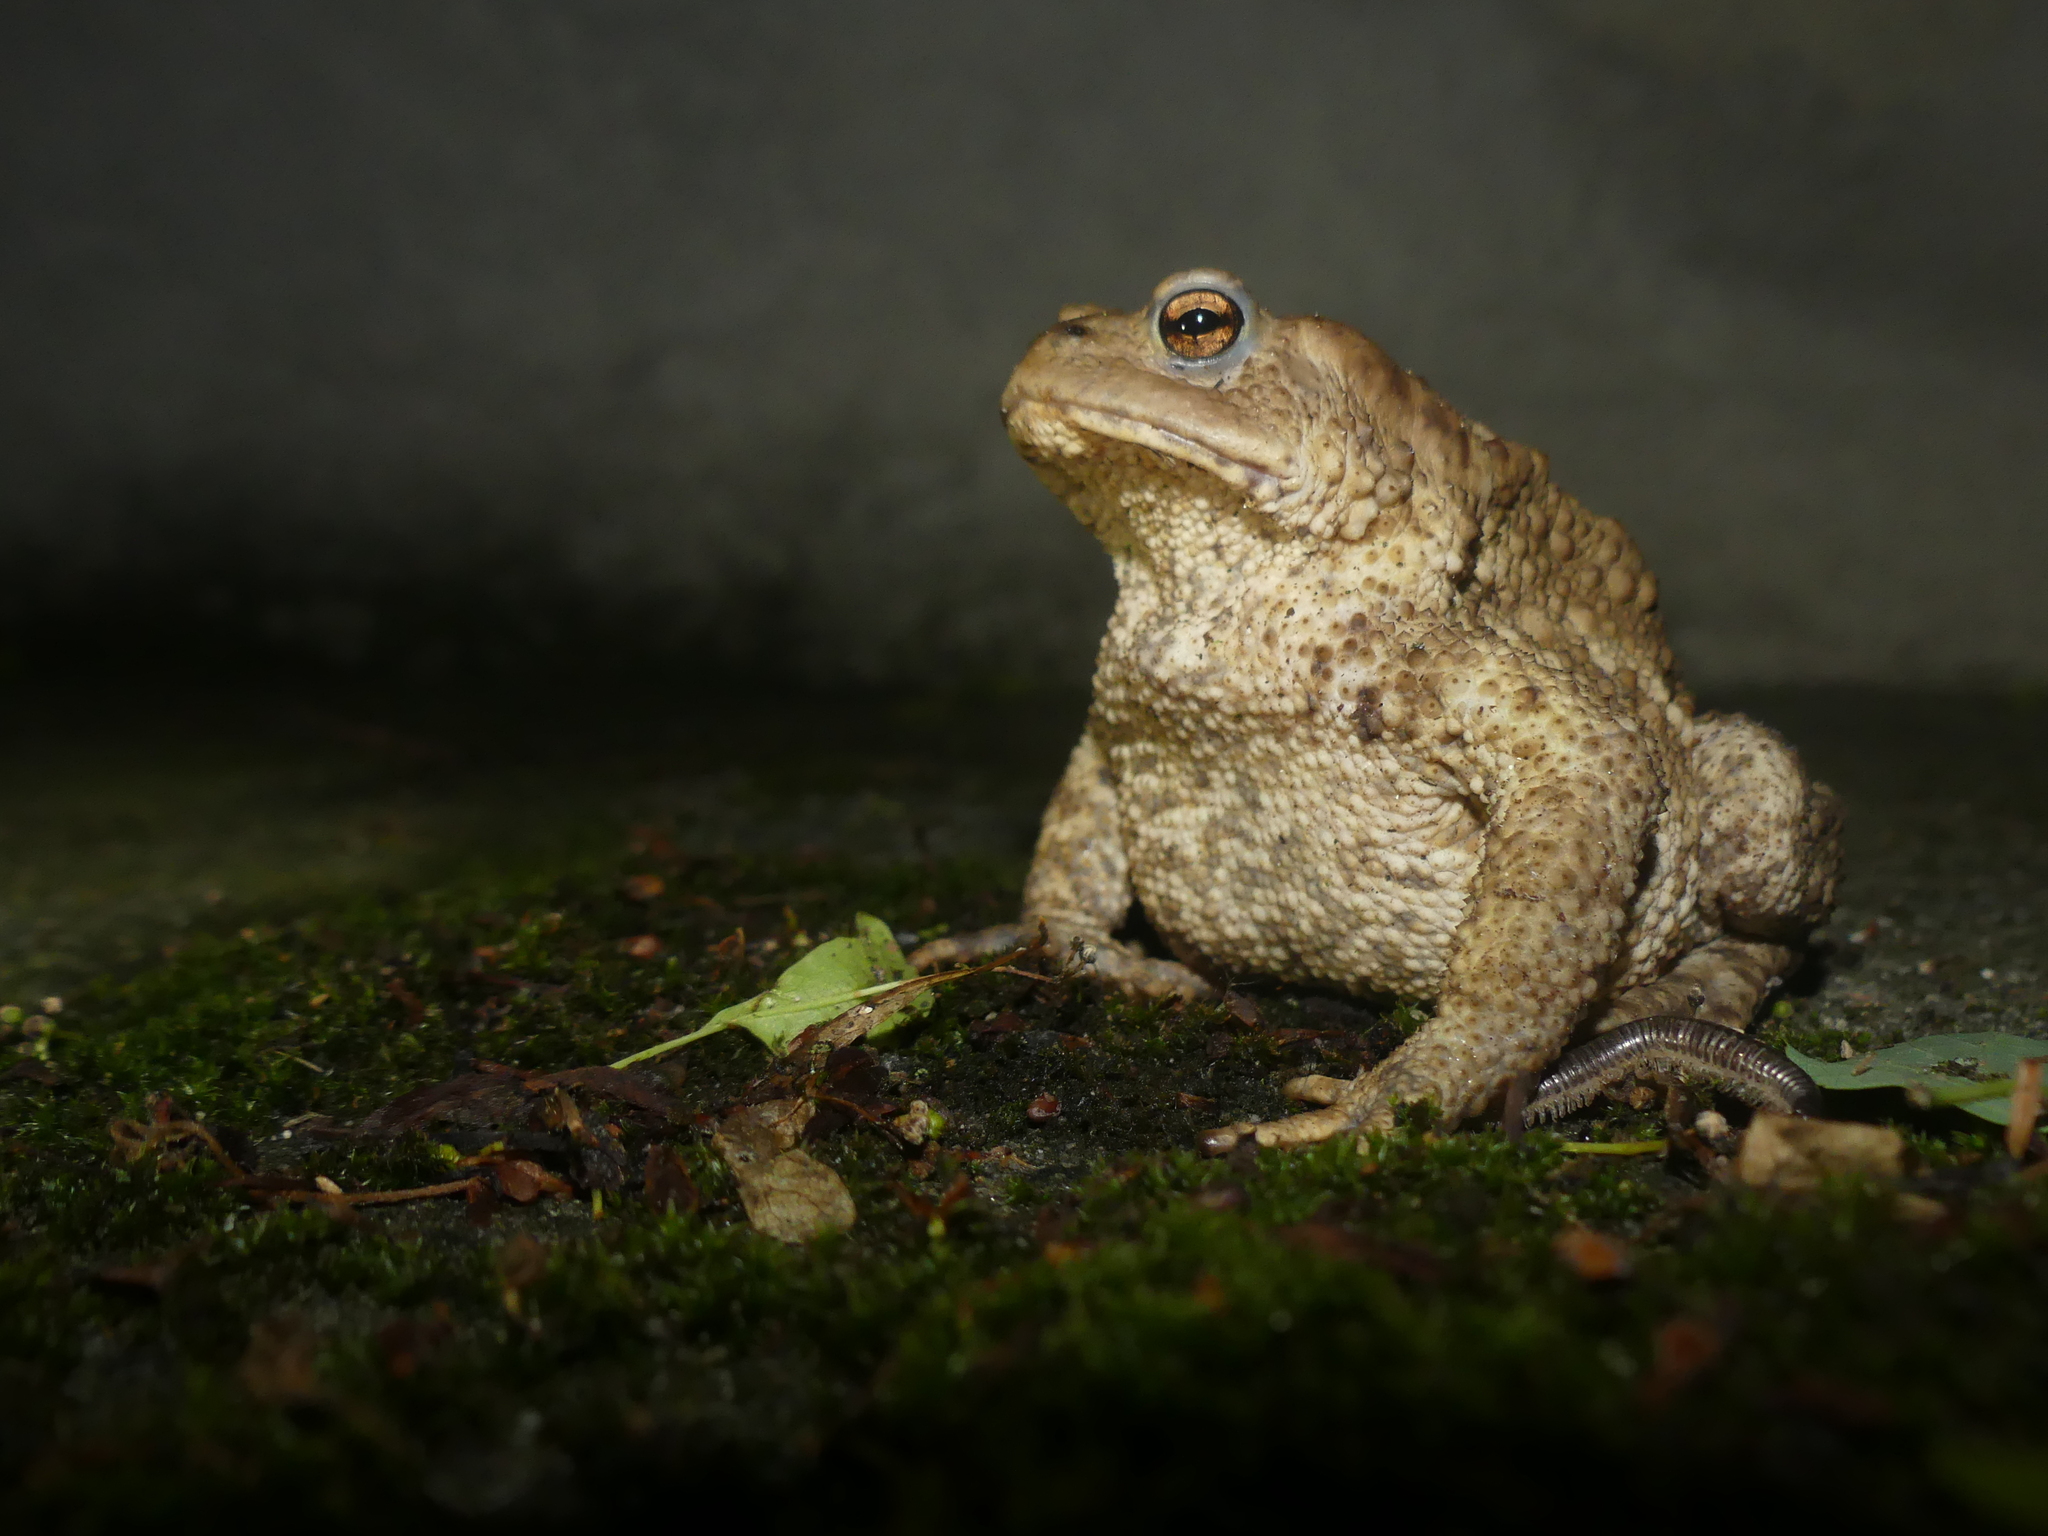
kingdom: Animalia
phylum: Chordata
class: Amphibia
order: Anura
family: Bufonidae
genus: Bufo
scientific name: Bufo bufo
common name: Common toad
